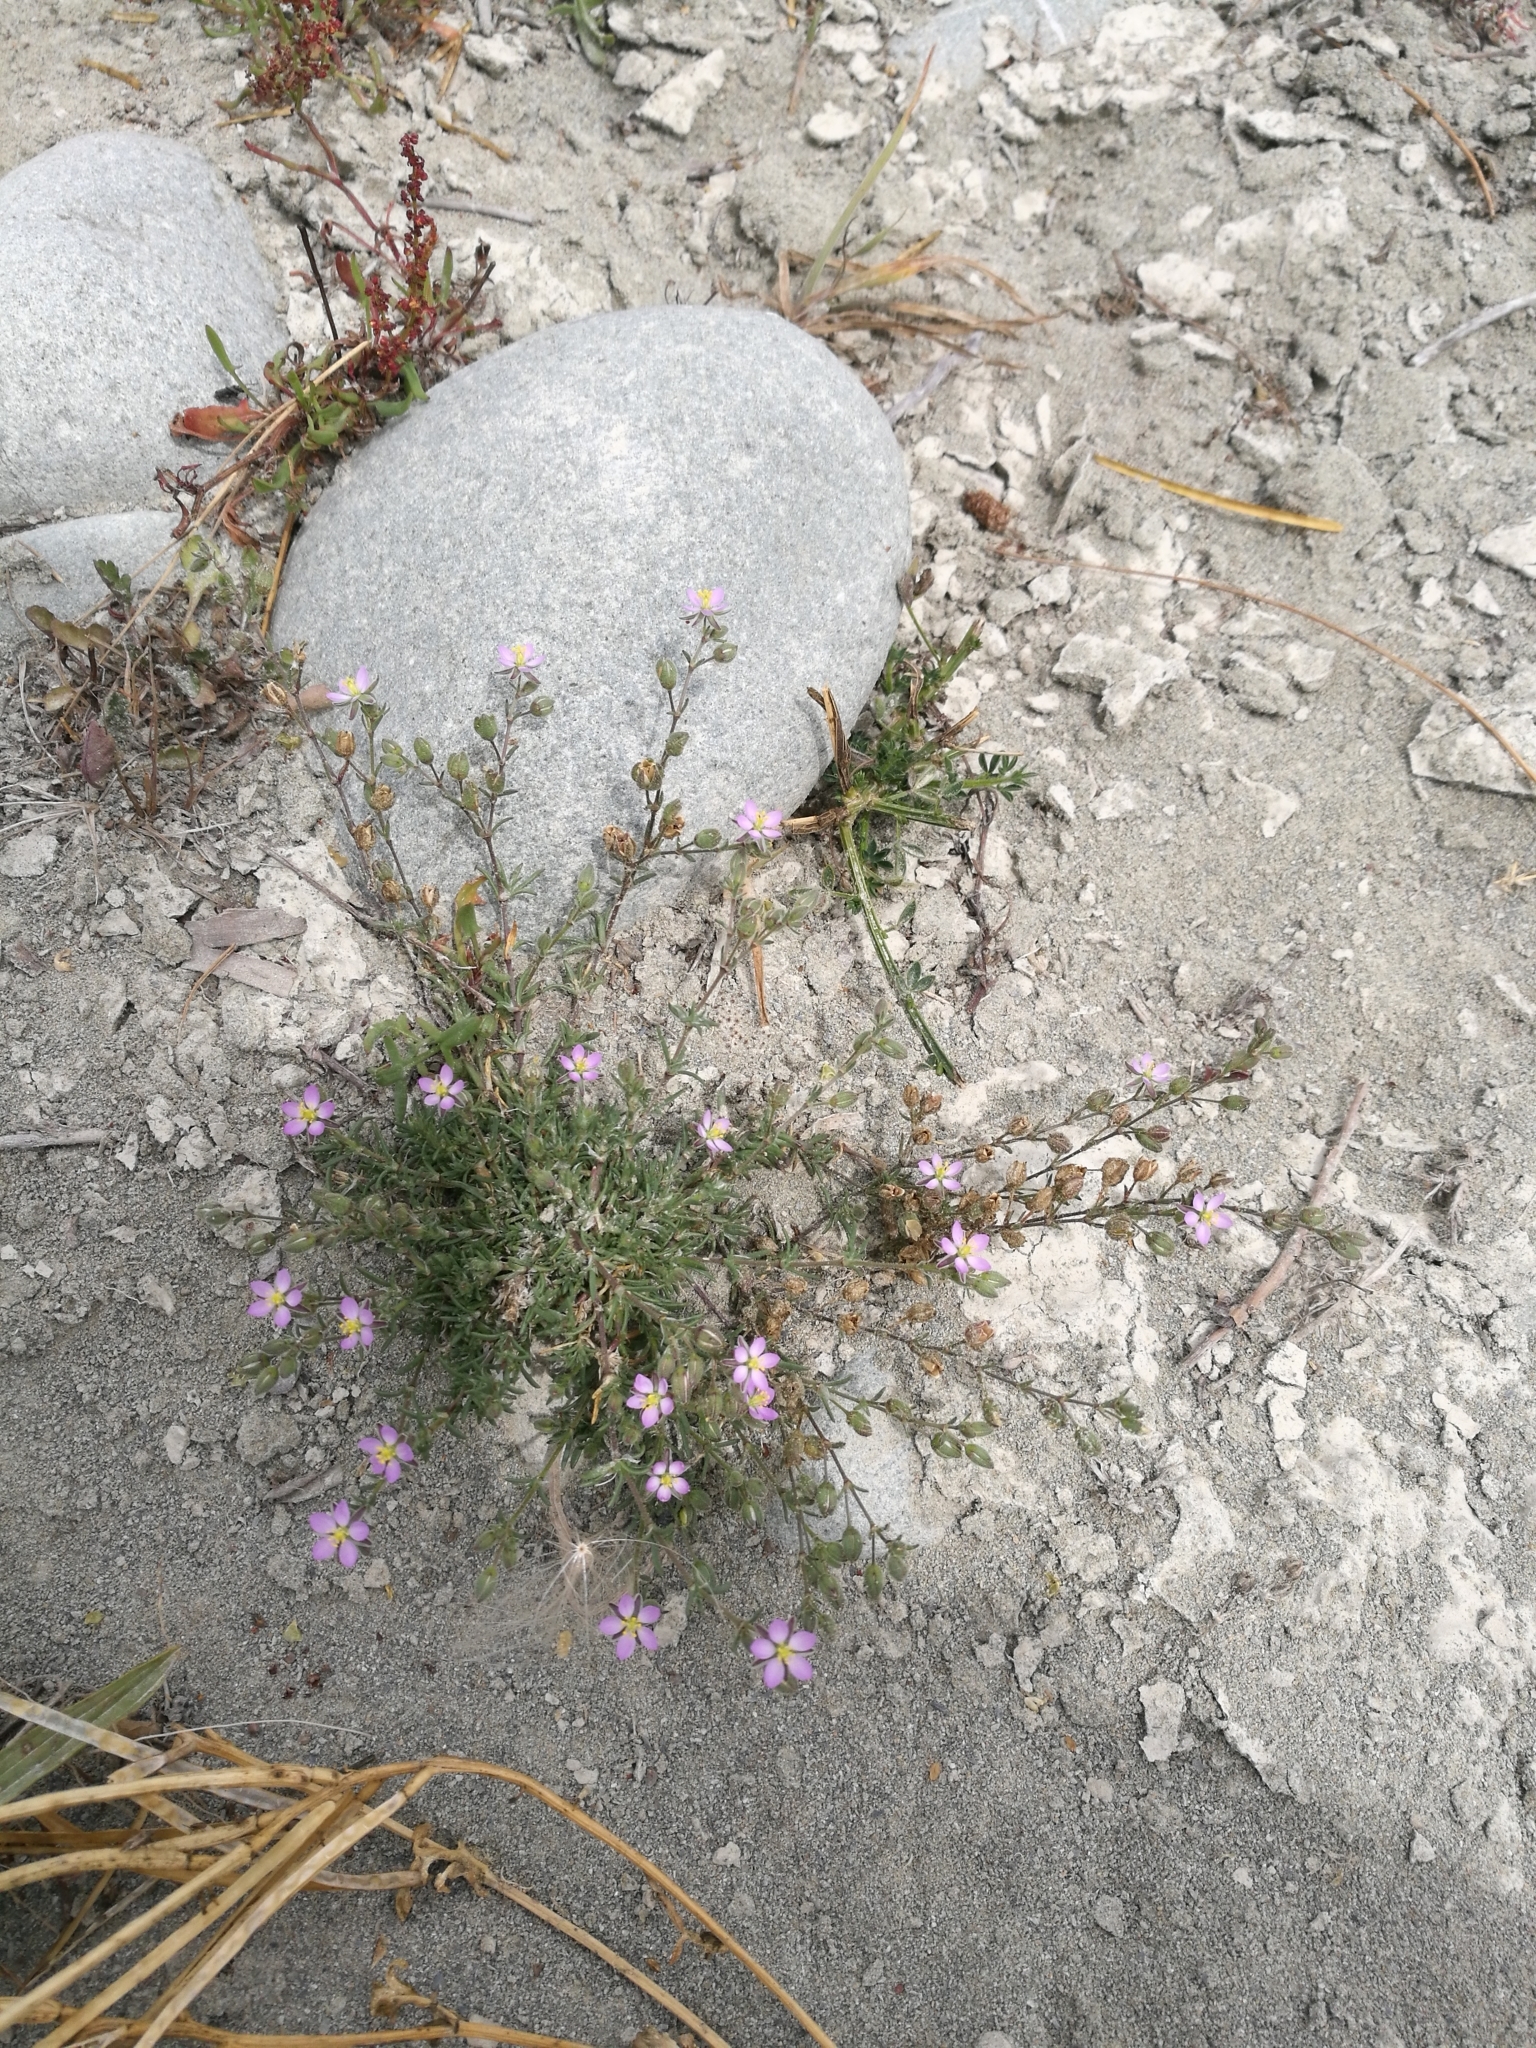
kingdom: Plantae
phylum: Tracheophyta
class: Magnoliopsida
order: Caryophyllales
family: Caryophyllaceae
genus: Spergularia
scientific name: Spergularia rubra
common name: Red sand-spurrey
